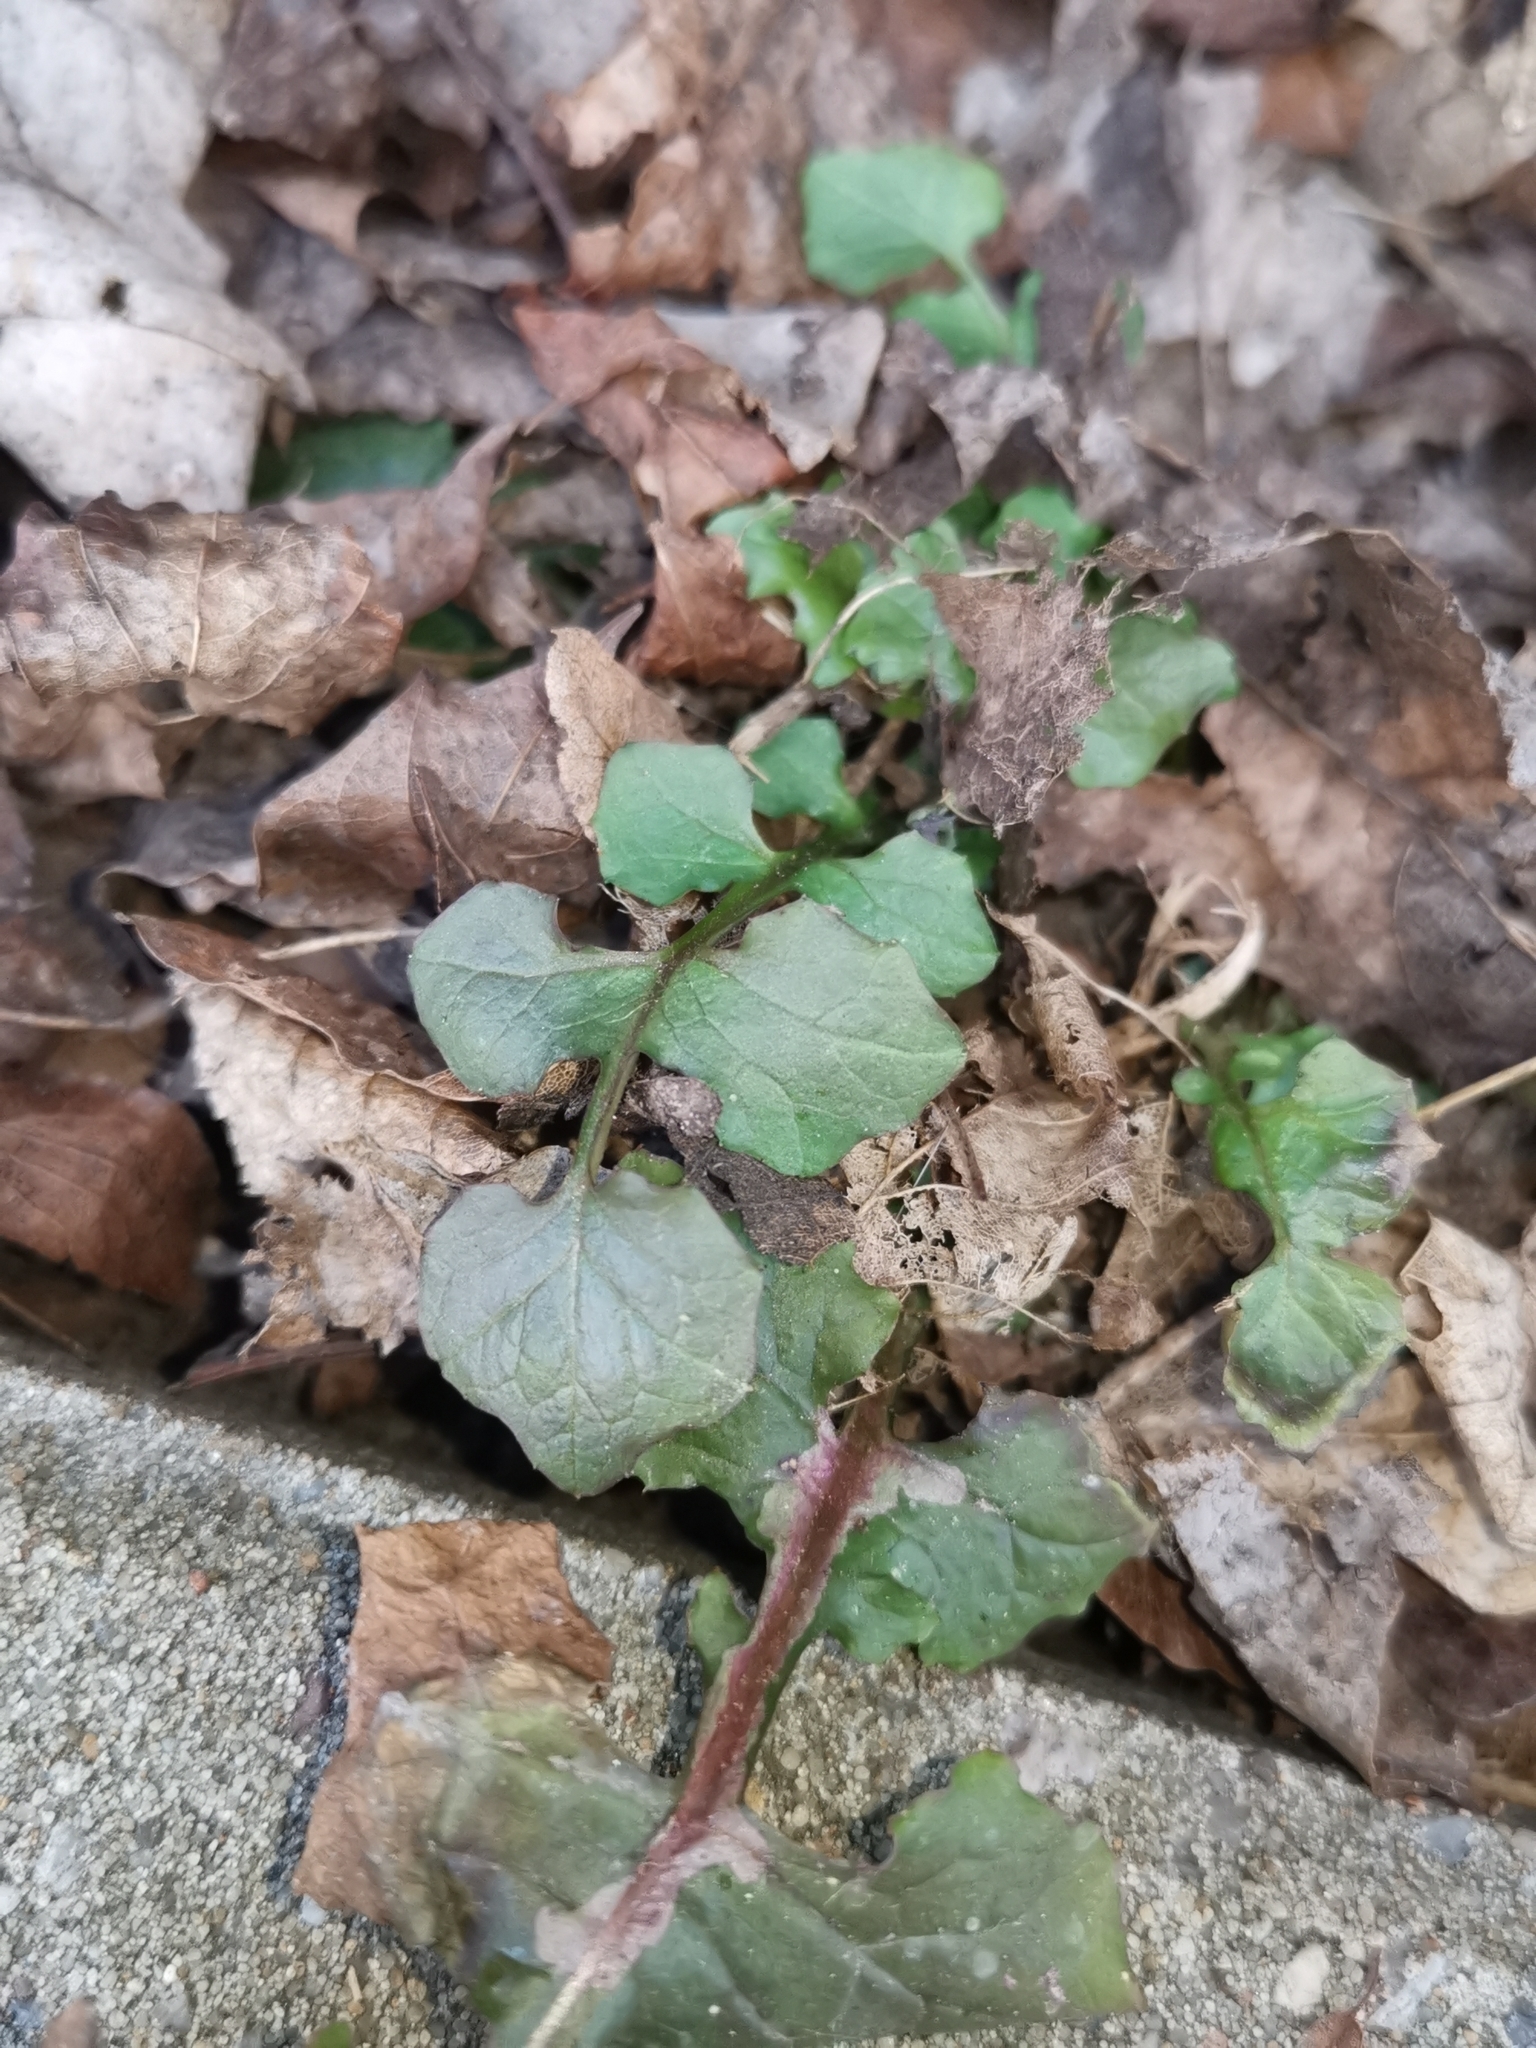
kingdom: Plantae
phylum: Tracheophyta
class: Magnoliopsida
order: Asterales
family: Asteraceae
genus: Mycelis
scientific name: Mycelis muralis
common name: Wall lettuce
